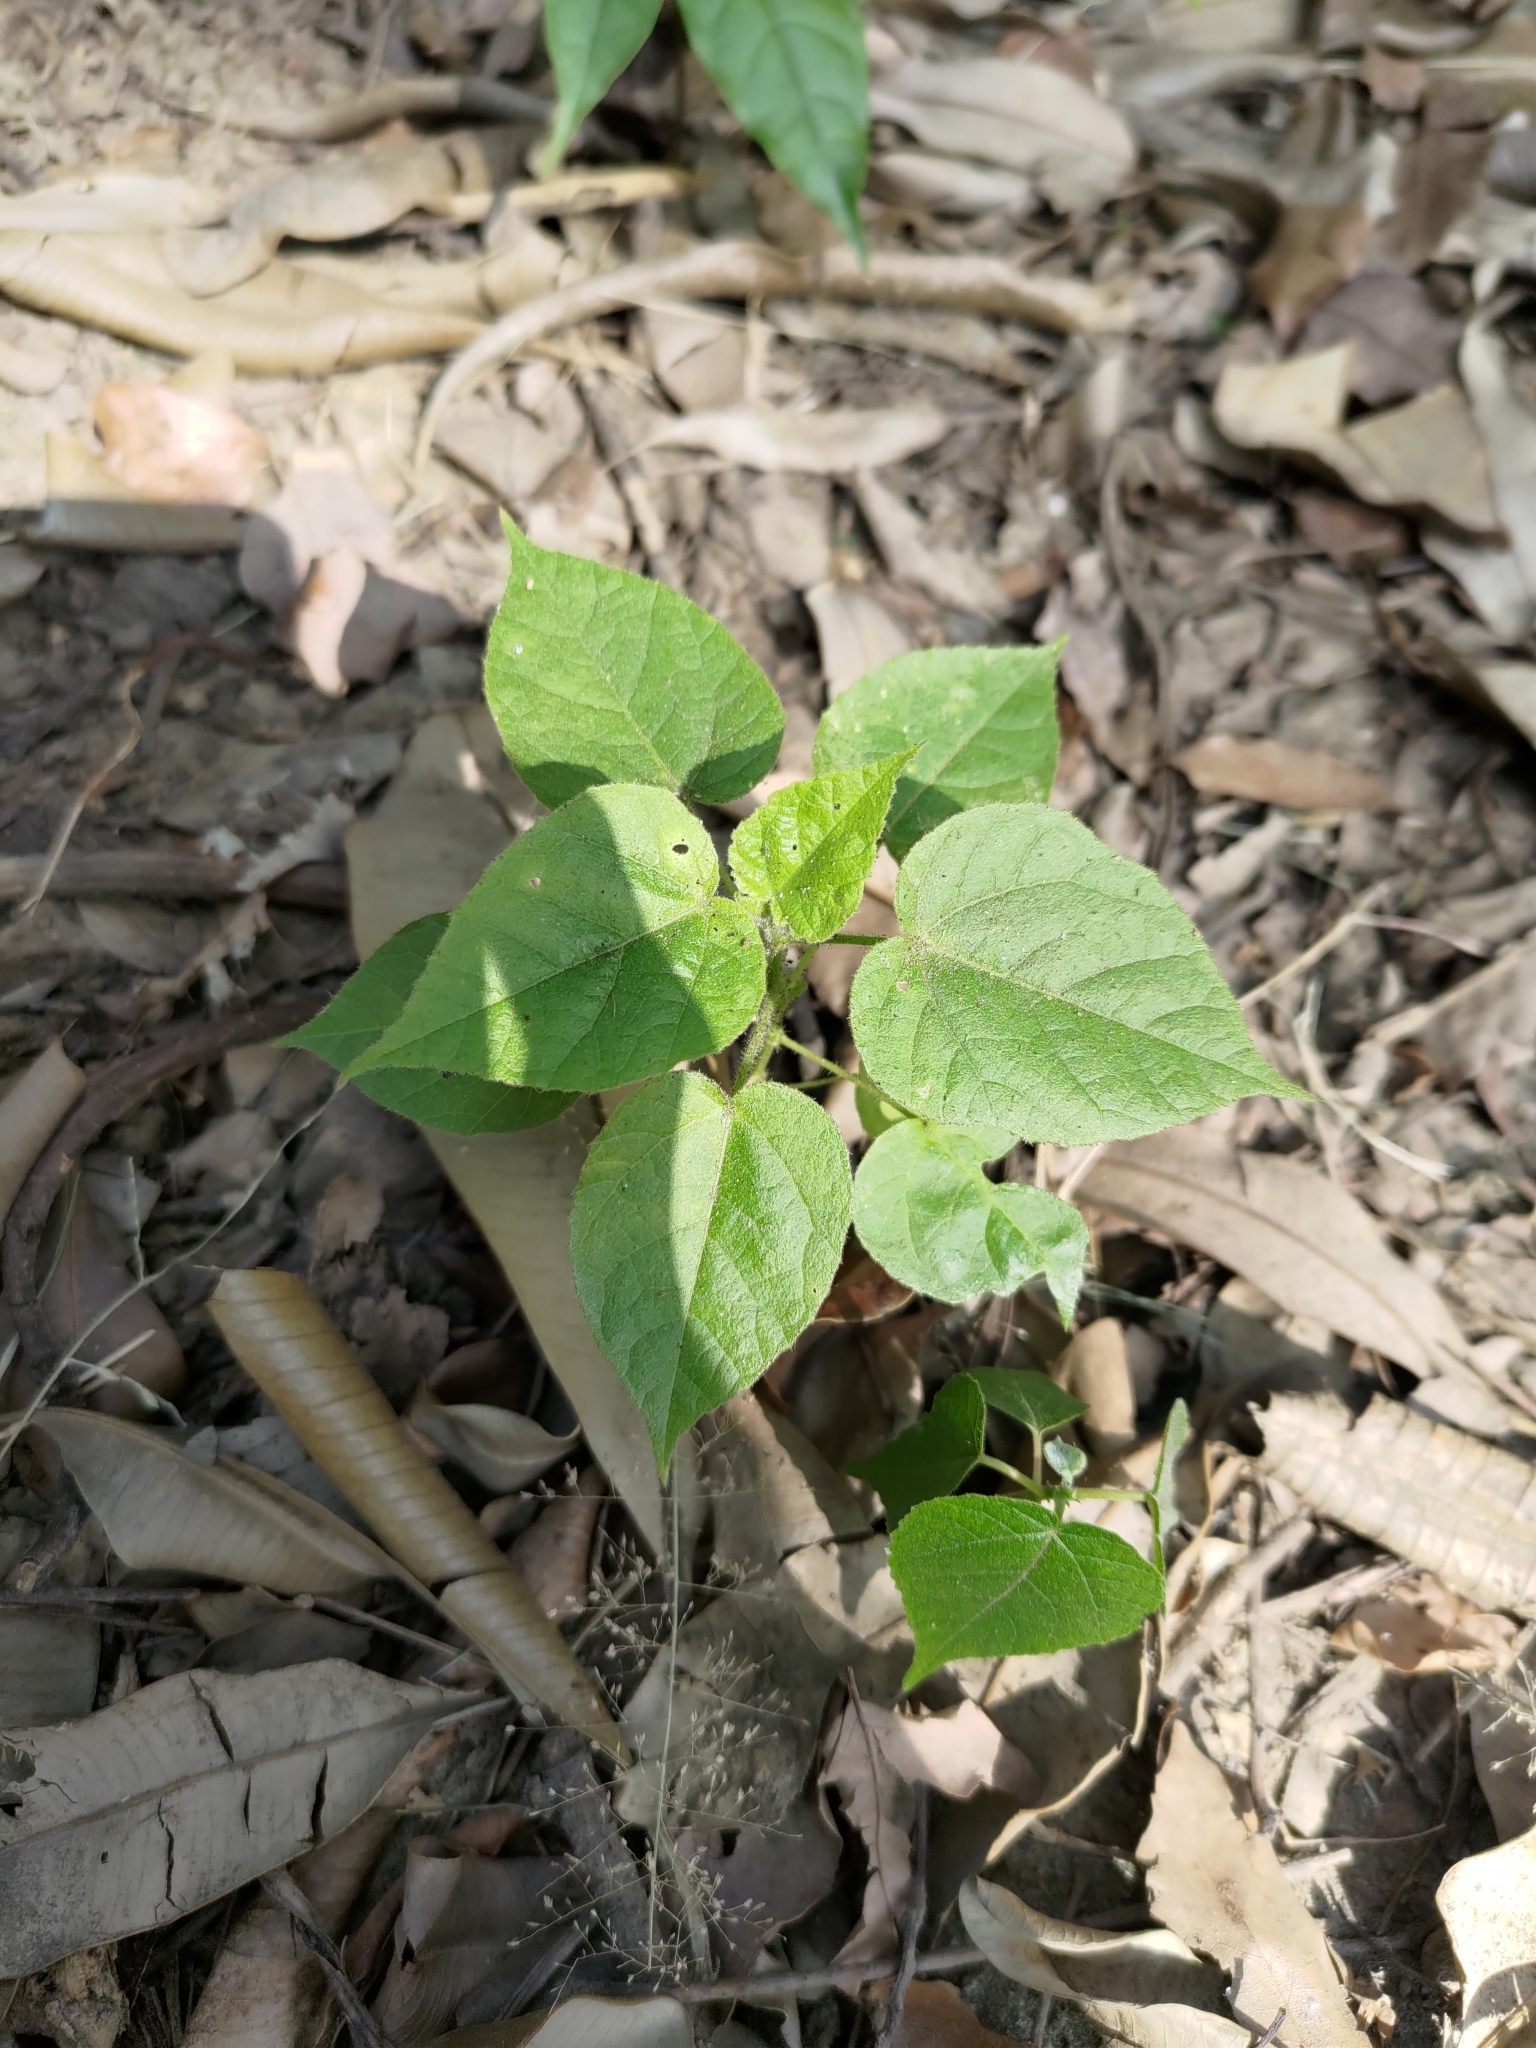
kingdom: Plantae
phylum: Tracheophyta
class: Magnoliopsida
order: Malpighiales
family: Passifloraceae
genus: Passiflora
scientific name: Passiflora vesicaria
